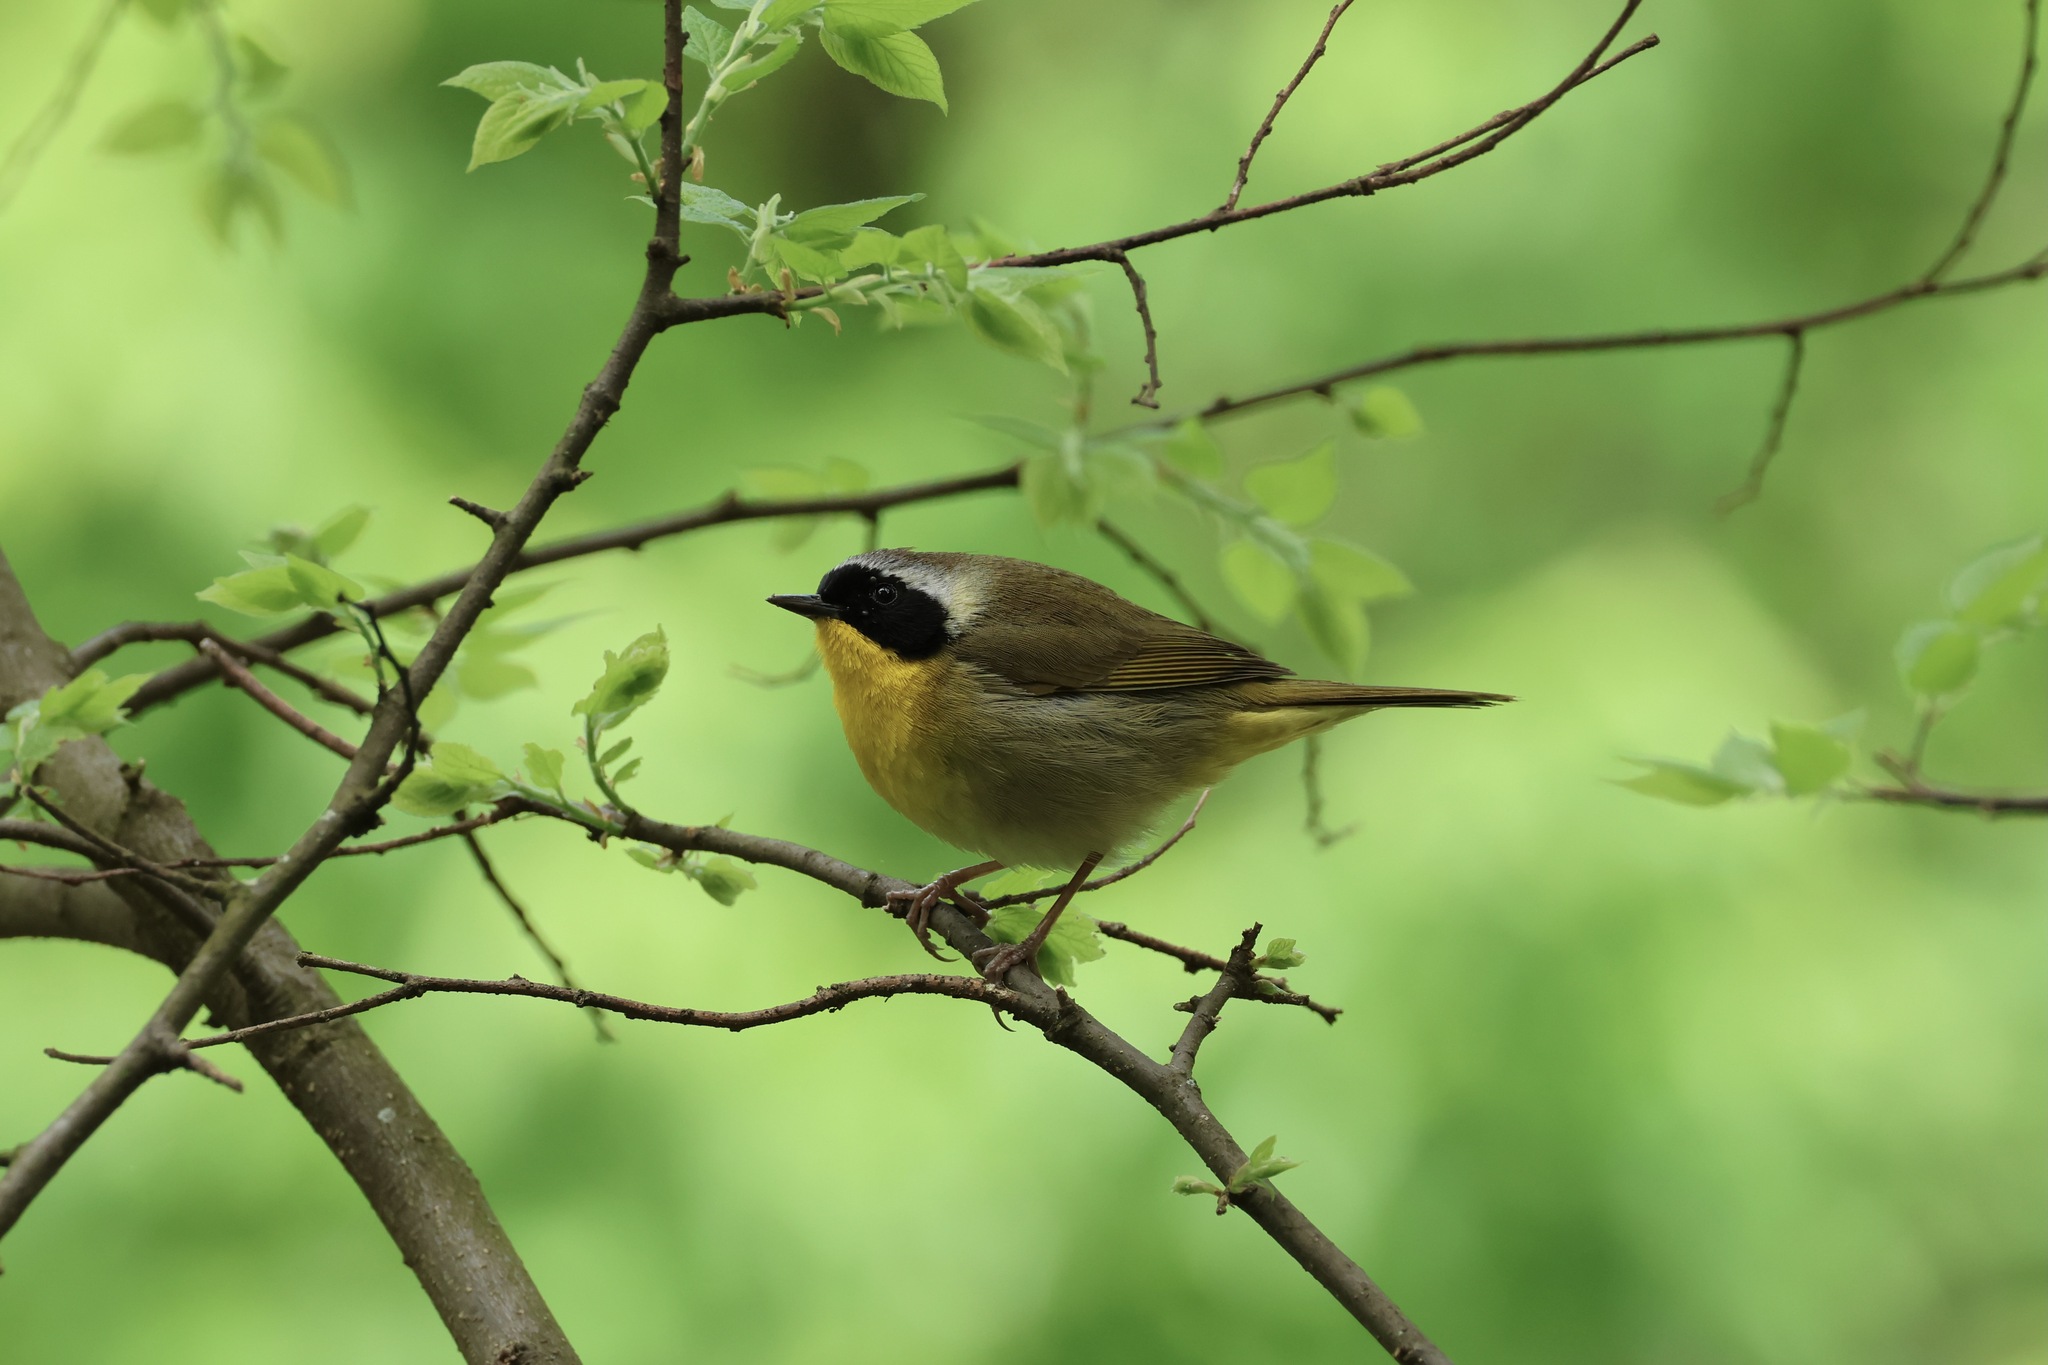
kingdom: Animalia
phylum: Chordata
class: Aves
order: Passeriformes
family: Parulidae
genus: Geothlypis
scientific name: Geothlypis trichas
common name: Common yellowthroat
